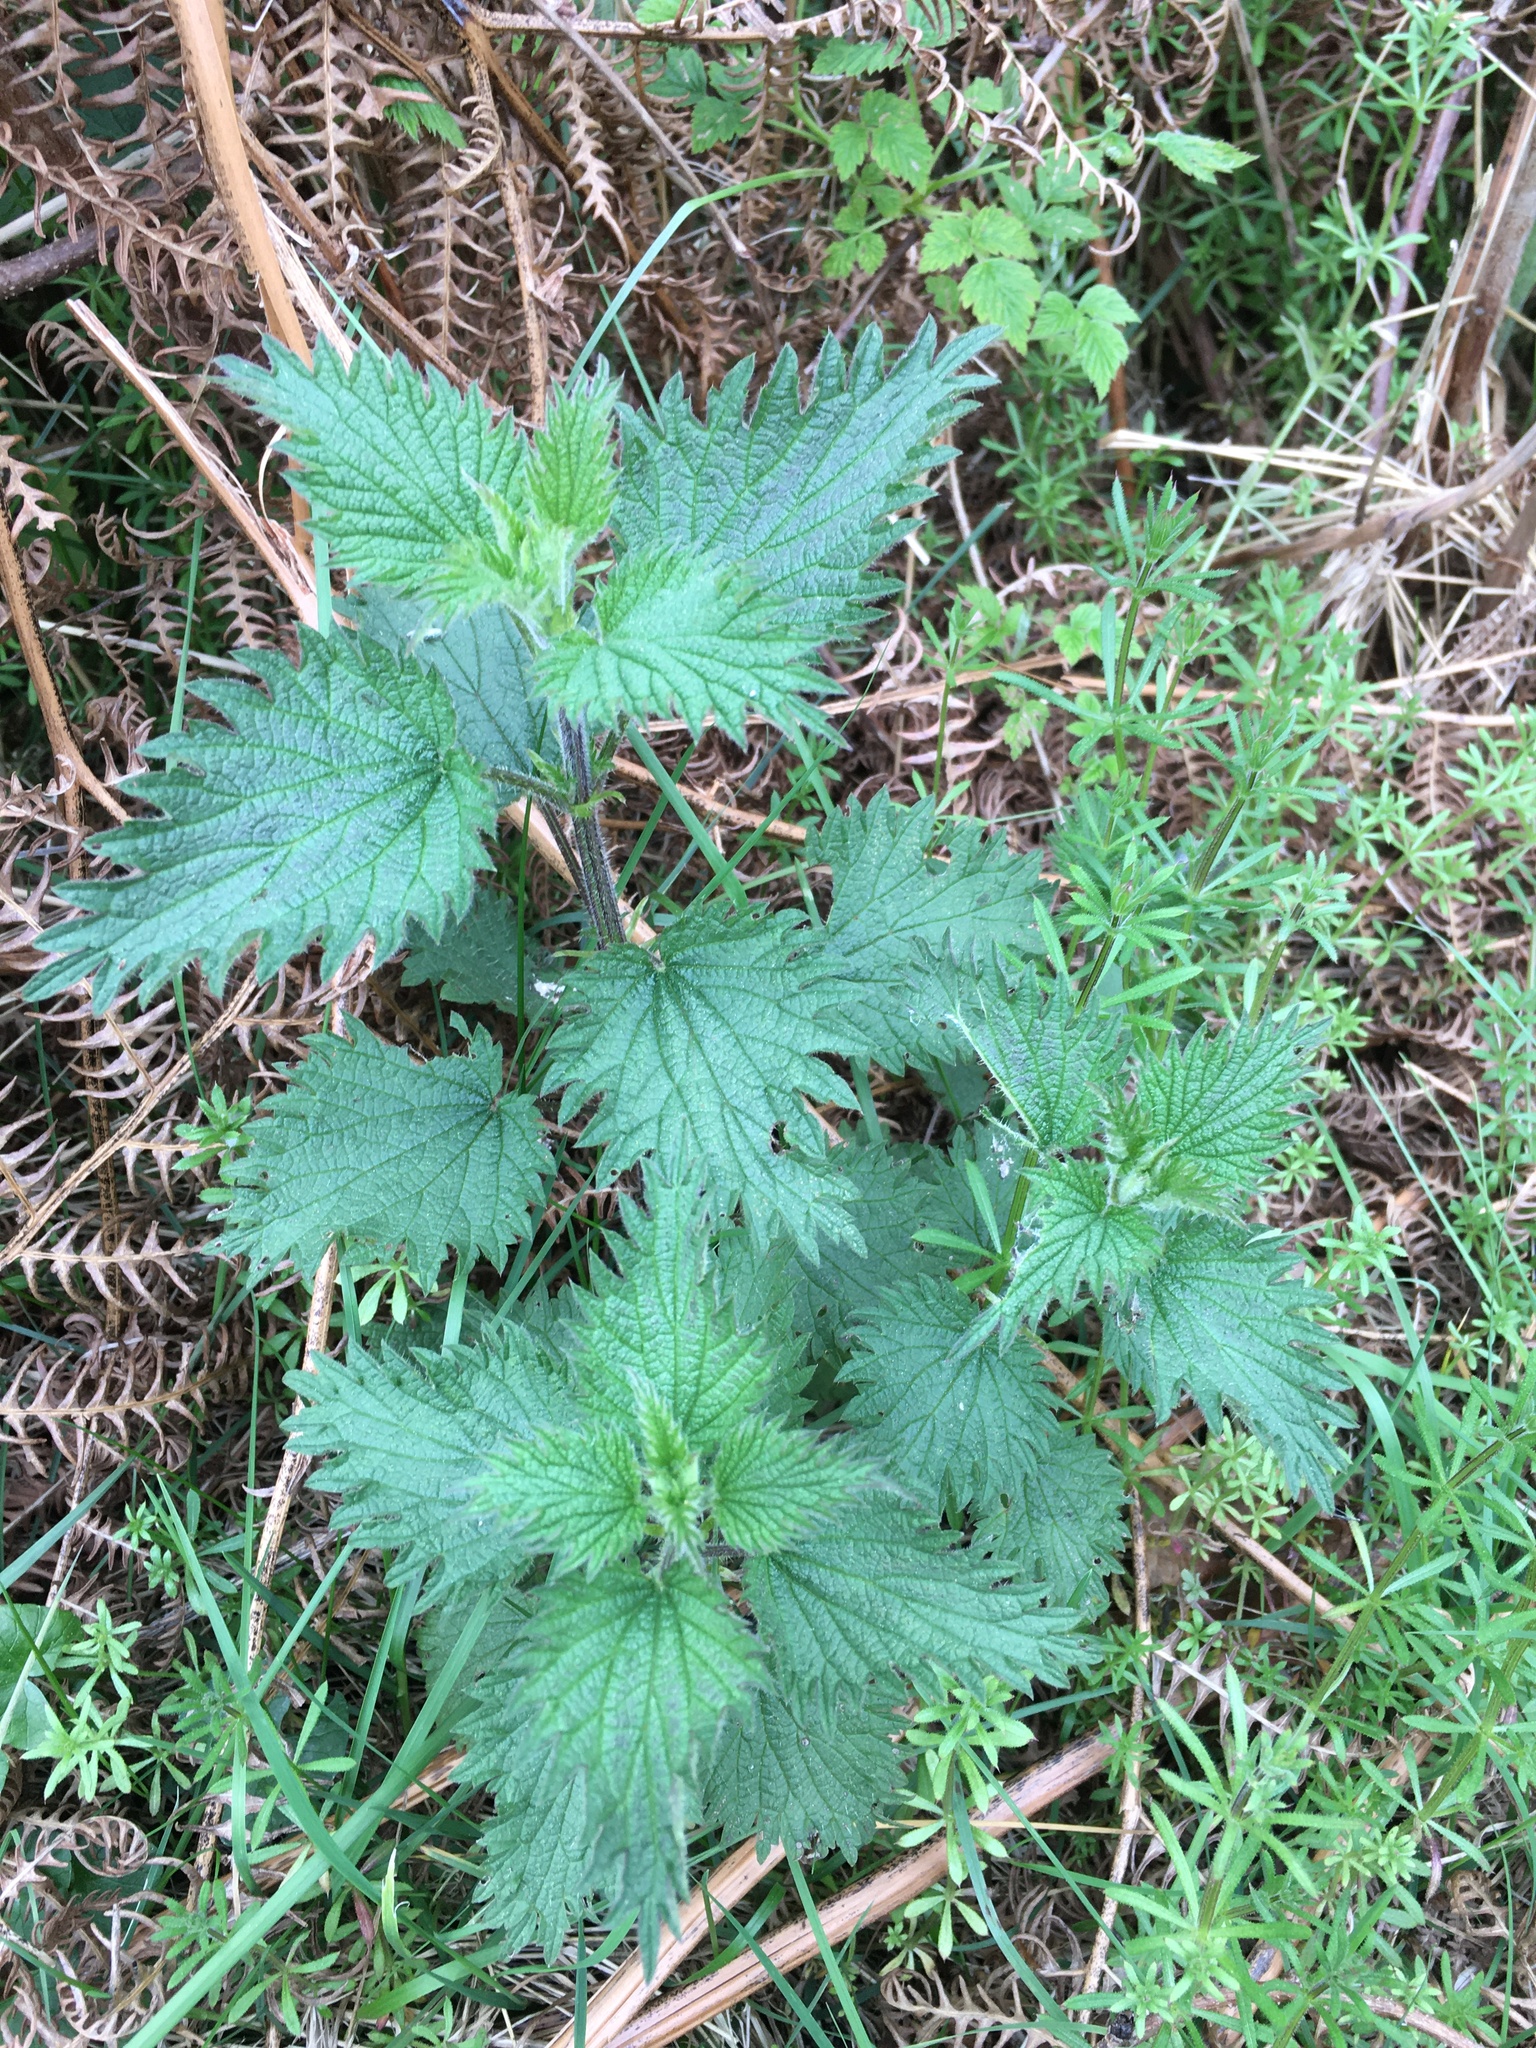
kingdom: Plantae
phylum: Tracheophyta
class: Magnoliopsida
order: Rosales
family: Urticaceae
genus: Urtica
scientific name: Urtica dioica
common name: Common nettle
